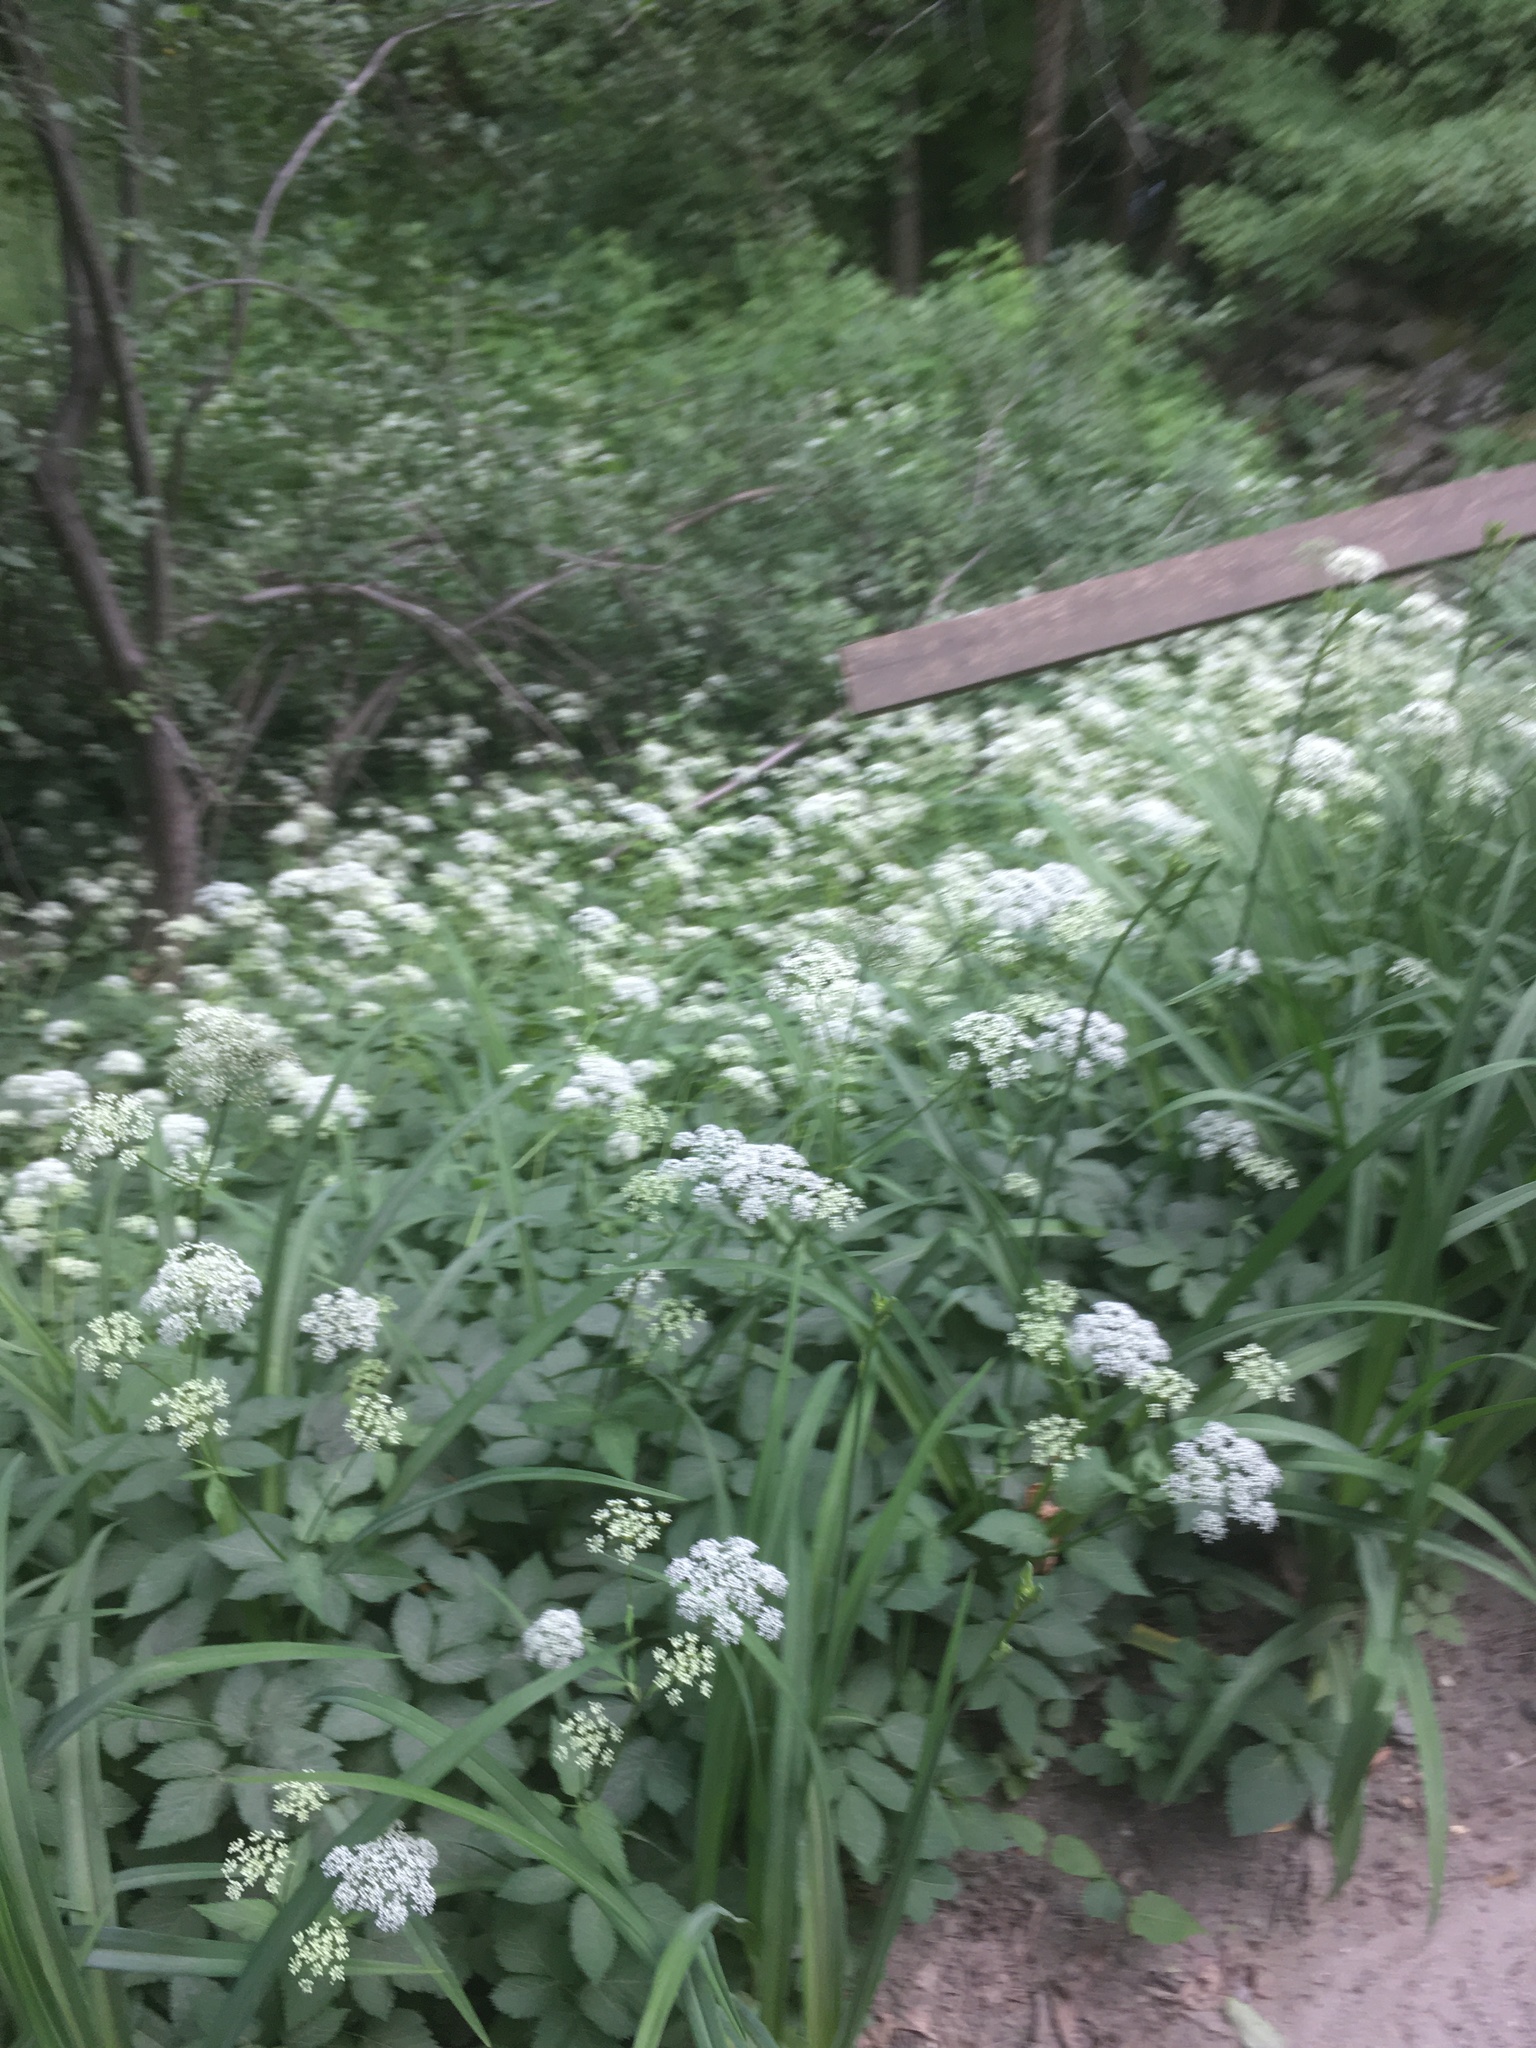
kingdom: Plantae
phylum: Tracheophyta
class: Magnoliopsida
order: Apiales
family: Apiaceae
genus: Aegopodium
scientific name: Aegopodium podagraria
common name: Ground-elder
